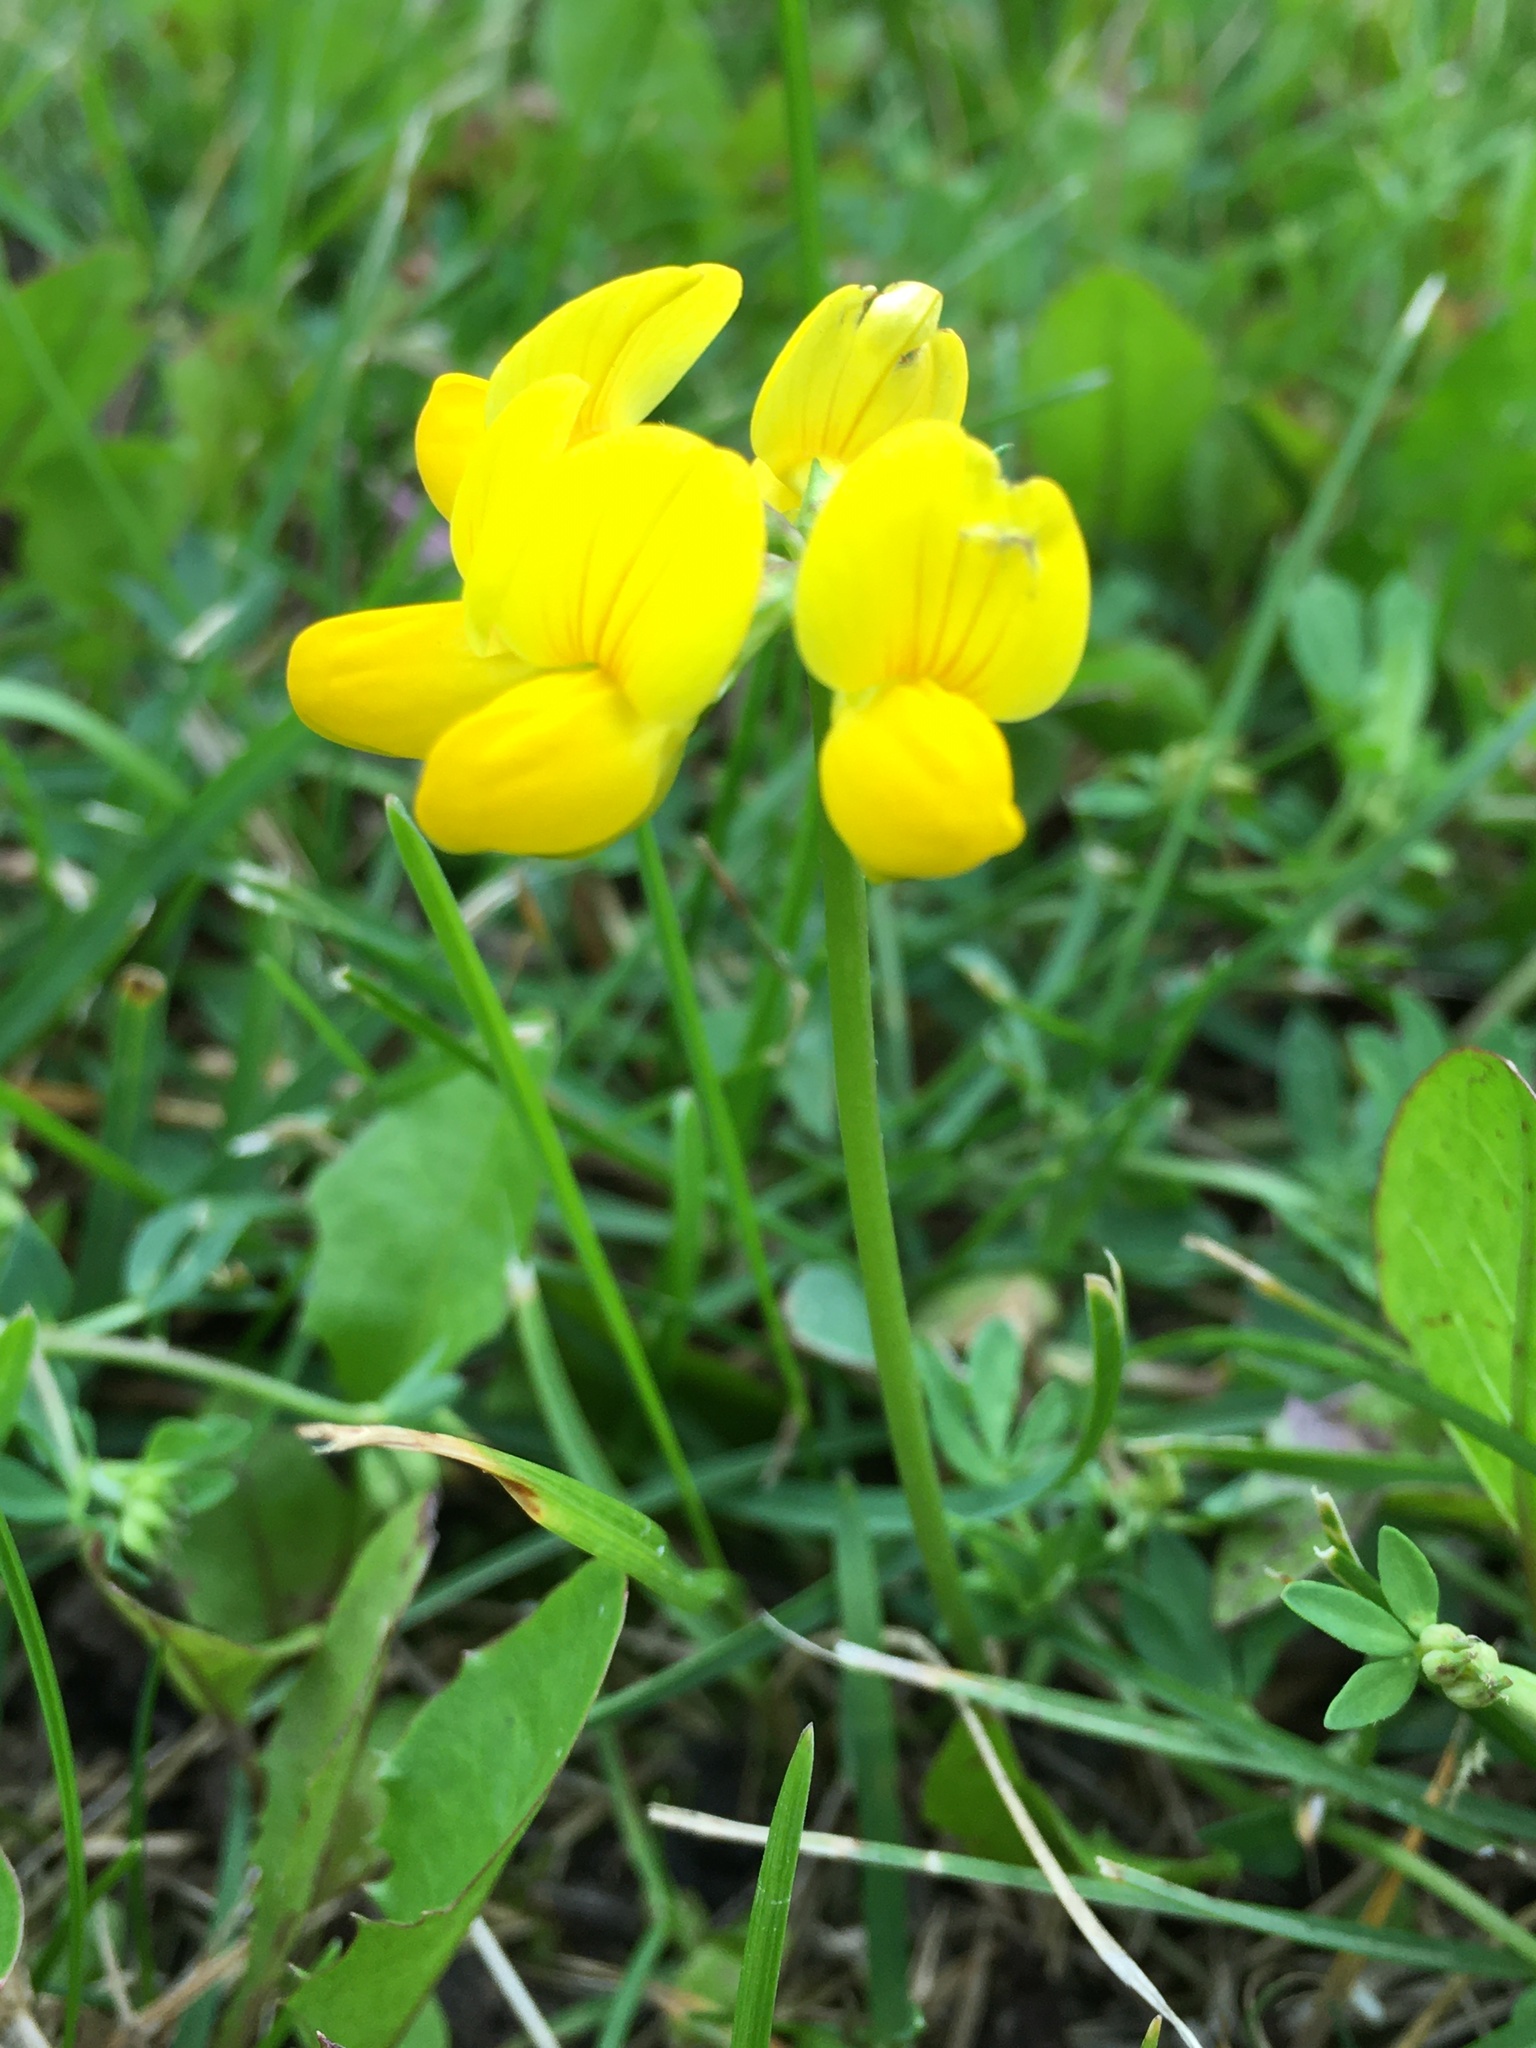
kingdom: Plantae
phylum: Tracheophyta
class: Magnoliopsida
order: Fabales
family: Fabaceae
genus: Lotus
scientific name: Lotus corniculatus
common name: Common bird's-foot-trefoil
